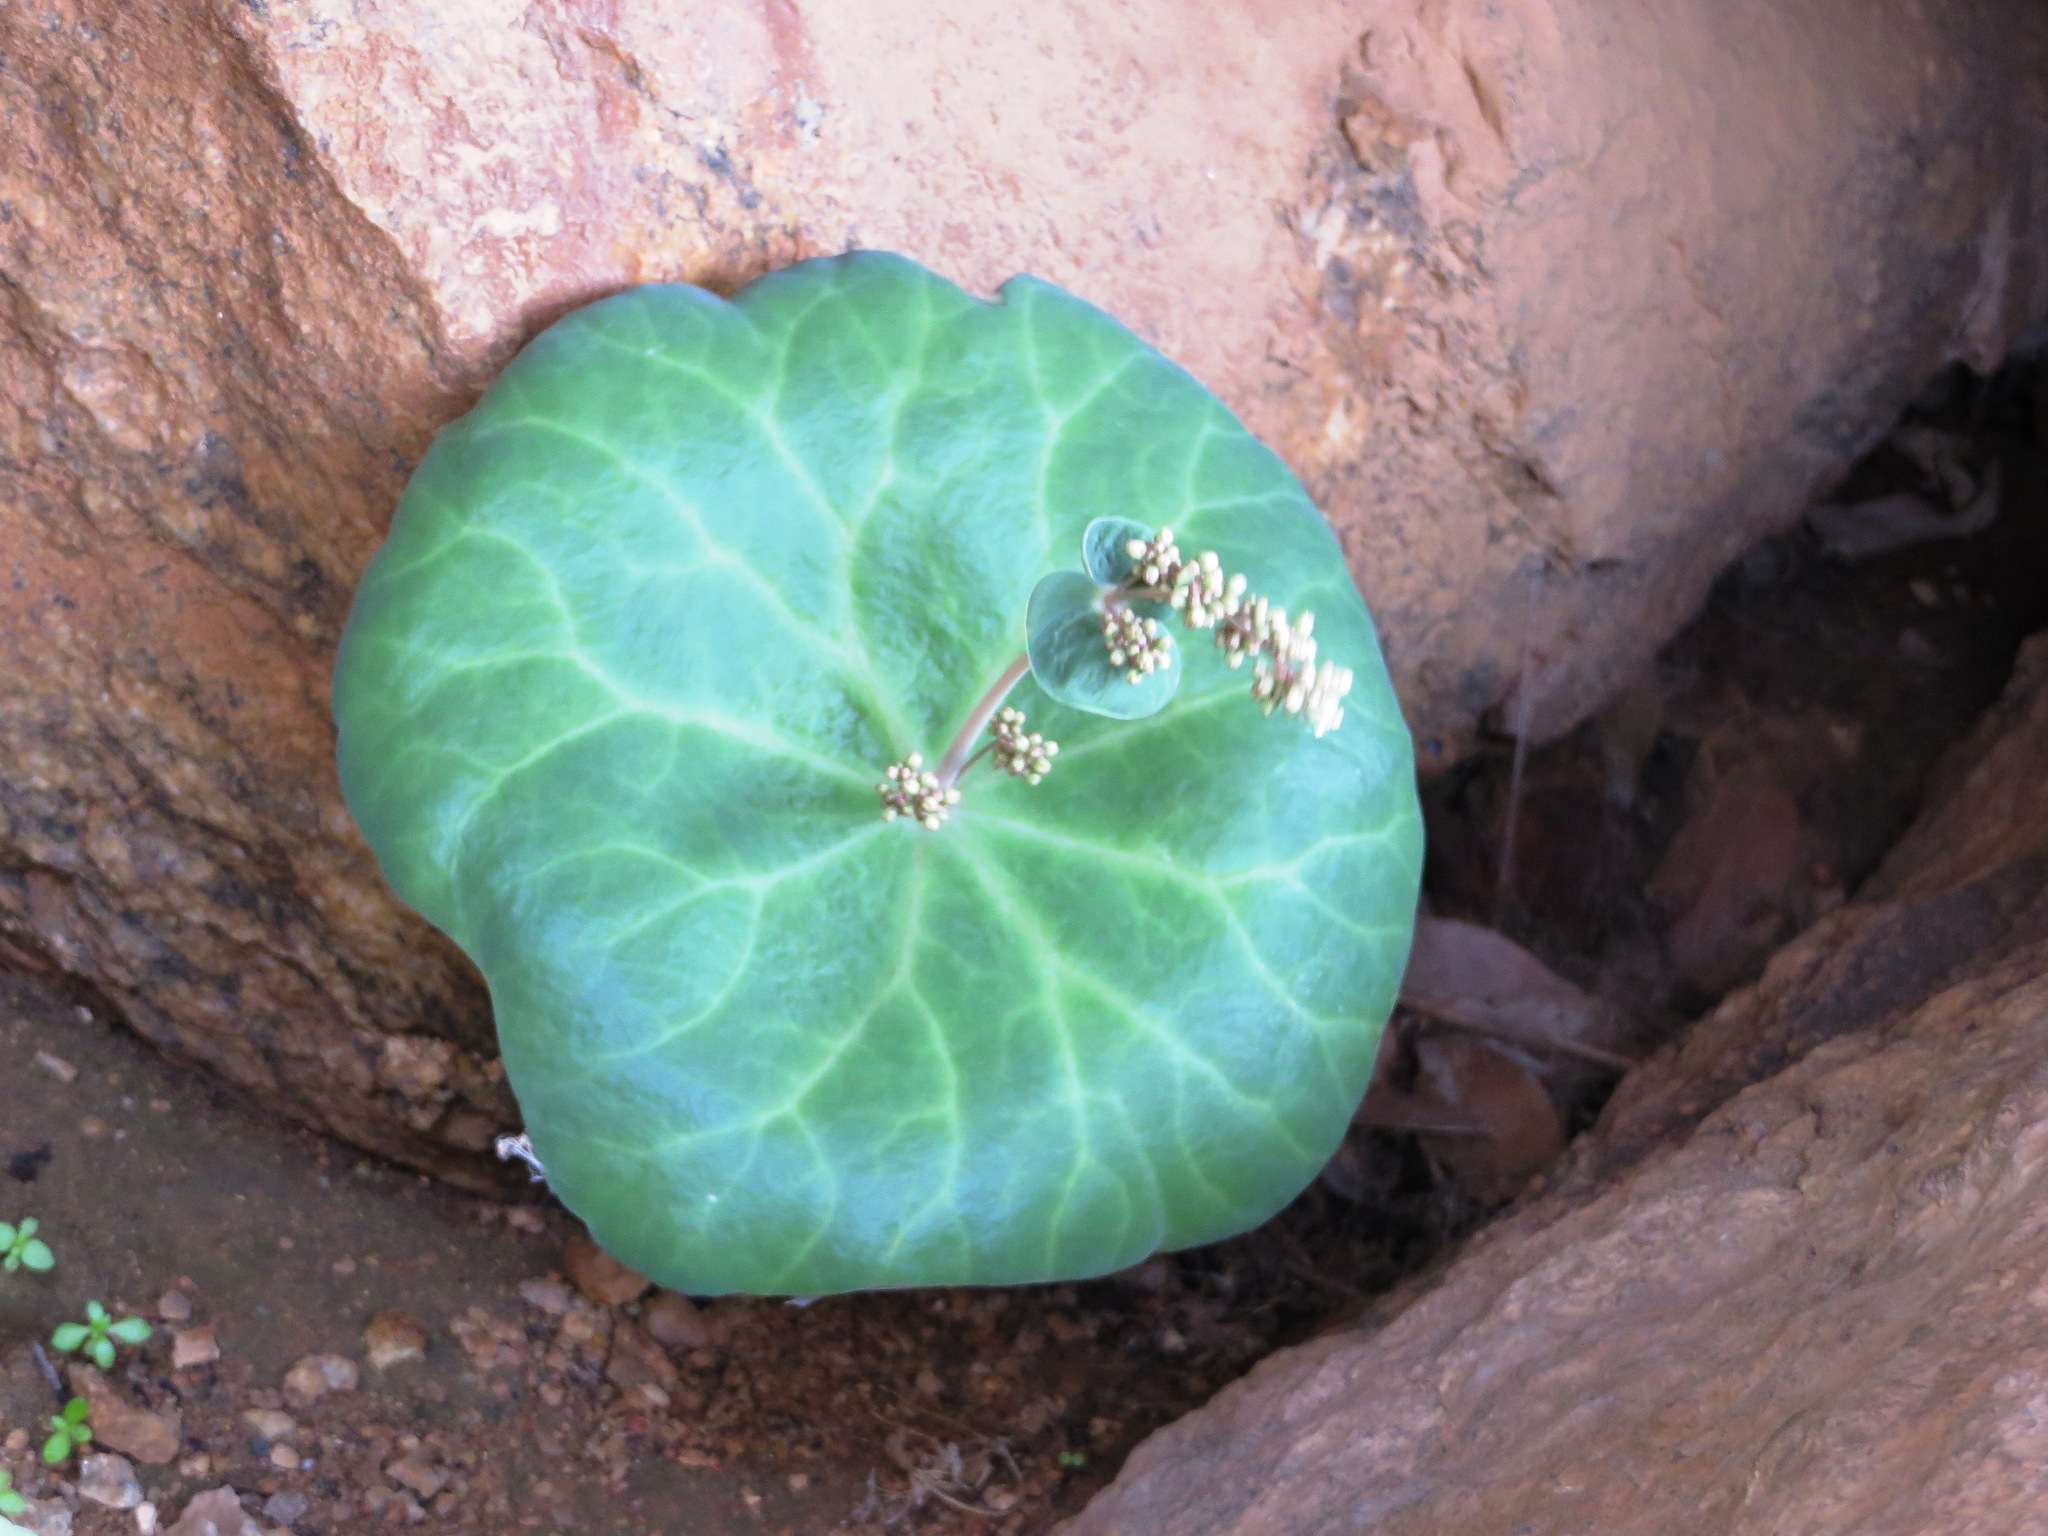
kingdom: Plantae
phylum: Tracheophyta
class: Magnoliopsida
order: Saxifragales
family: Crassulaceae
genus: Crassula
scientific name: Crassula umbella
